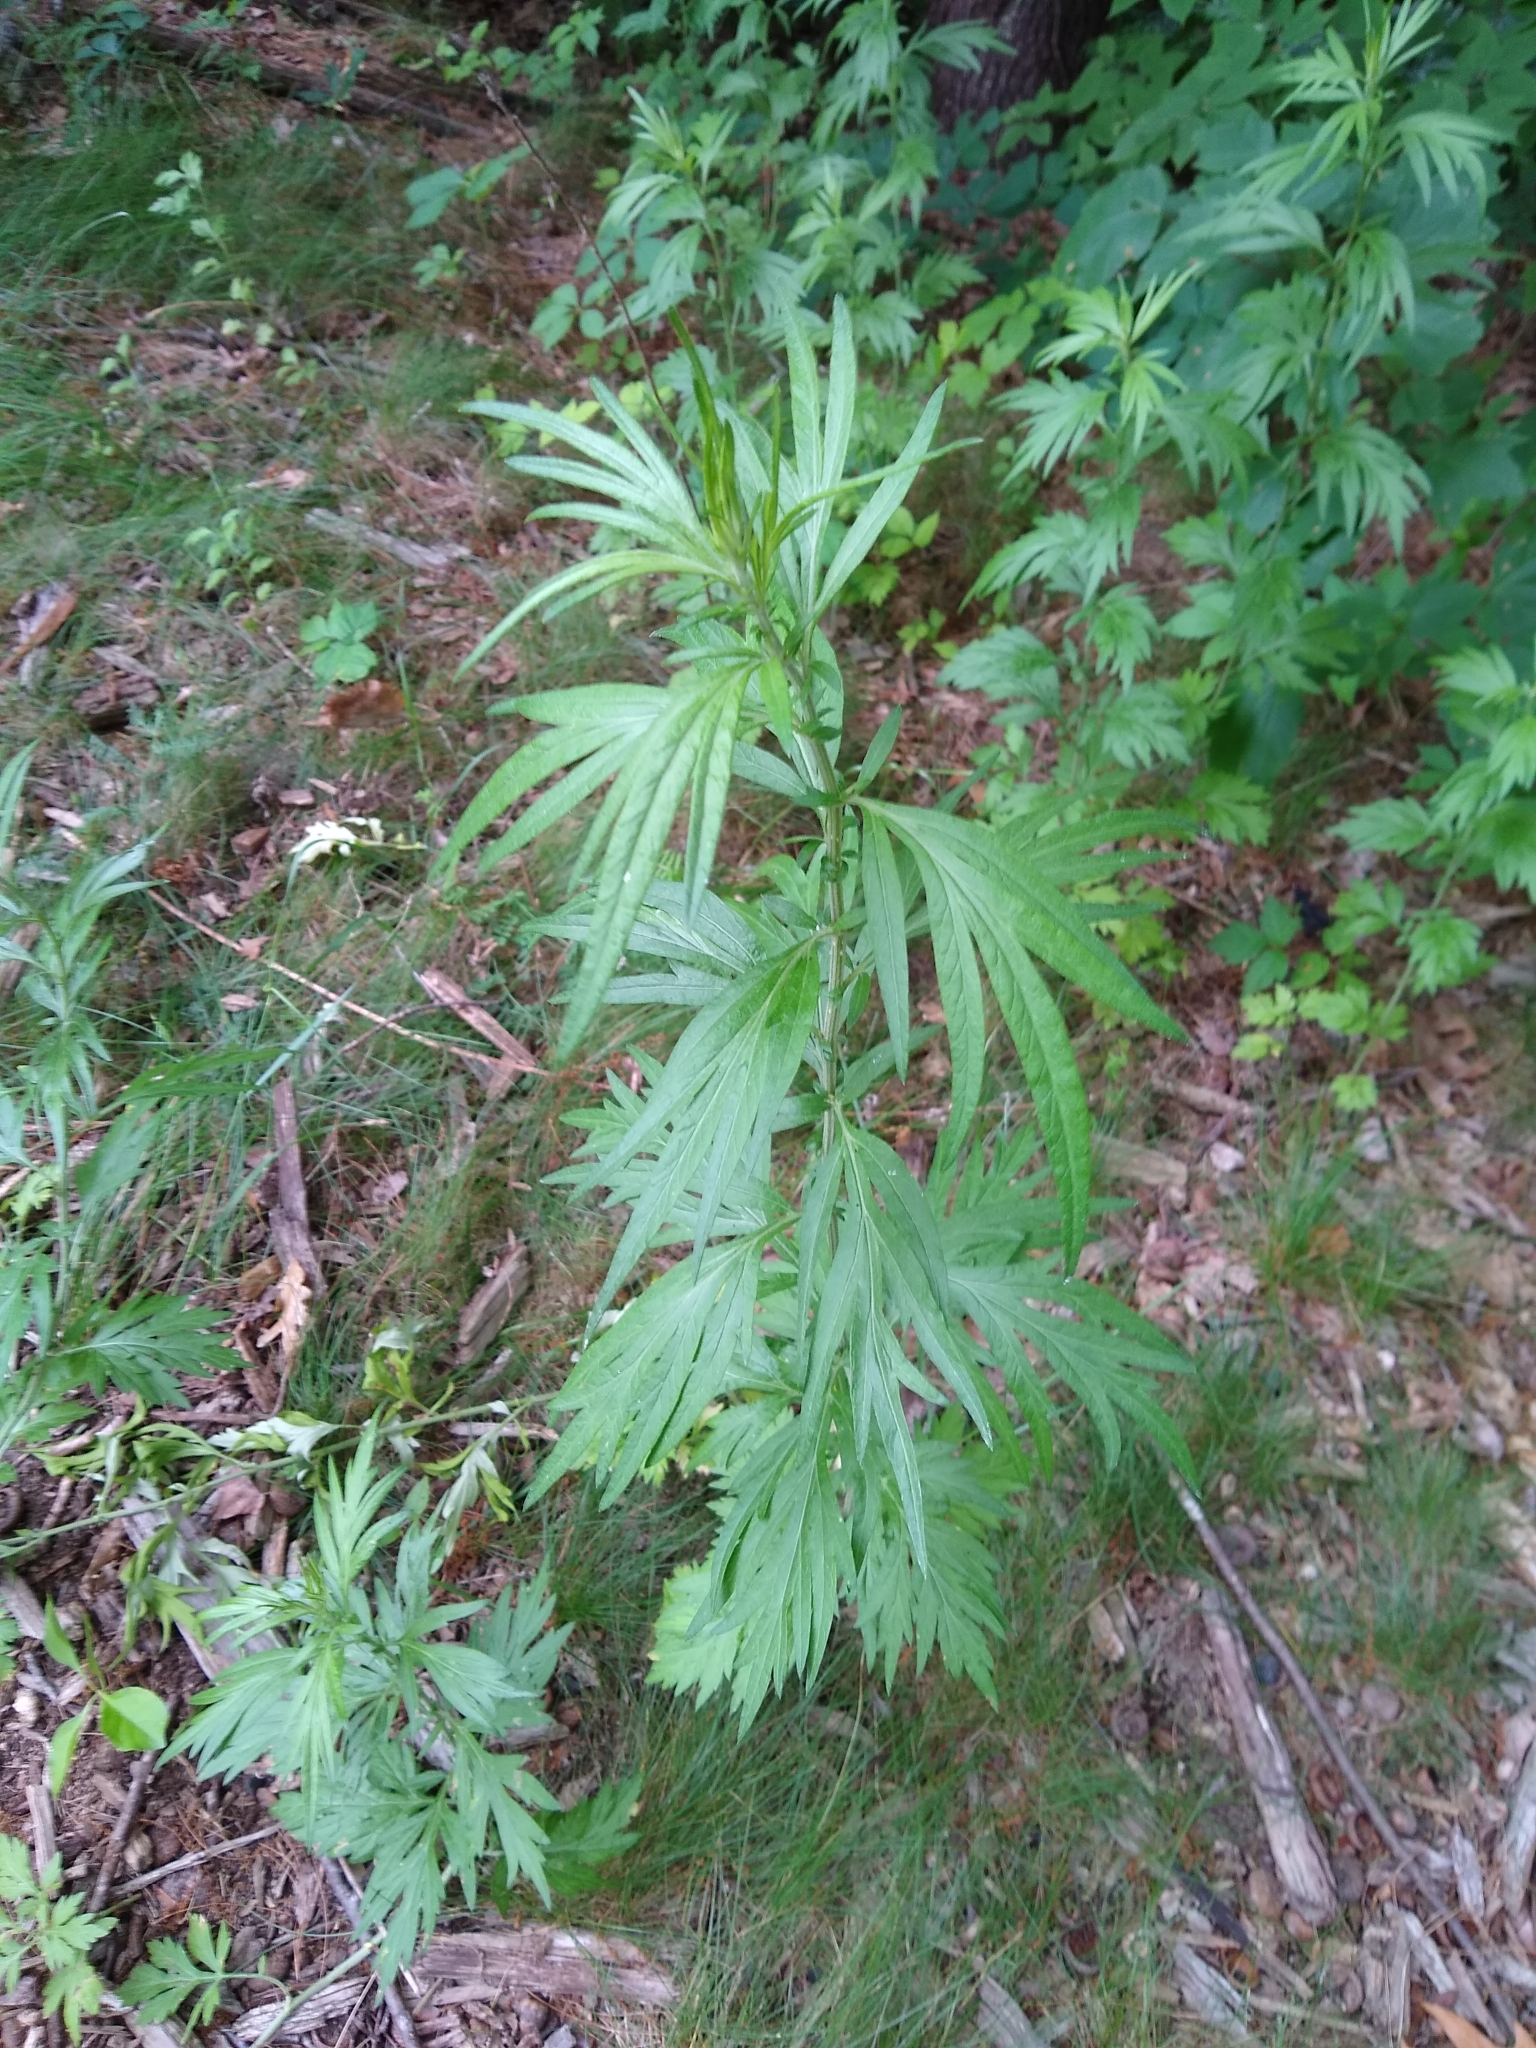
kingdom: Plantae
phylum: Tracheophyta
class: Magnoliopsida
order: Asterales
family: Asteraceae
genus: Artemisia
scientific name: Artemisia vulgaris
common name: Mugwort
